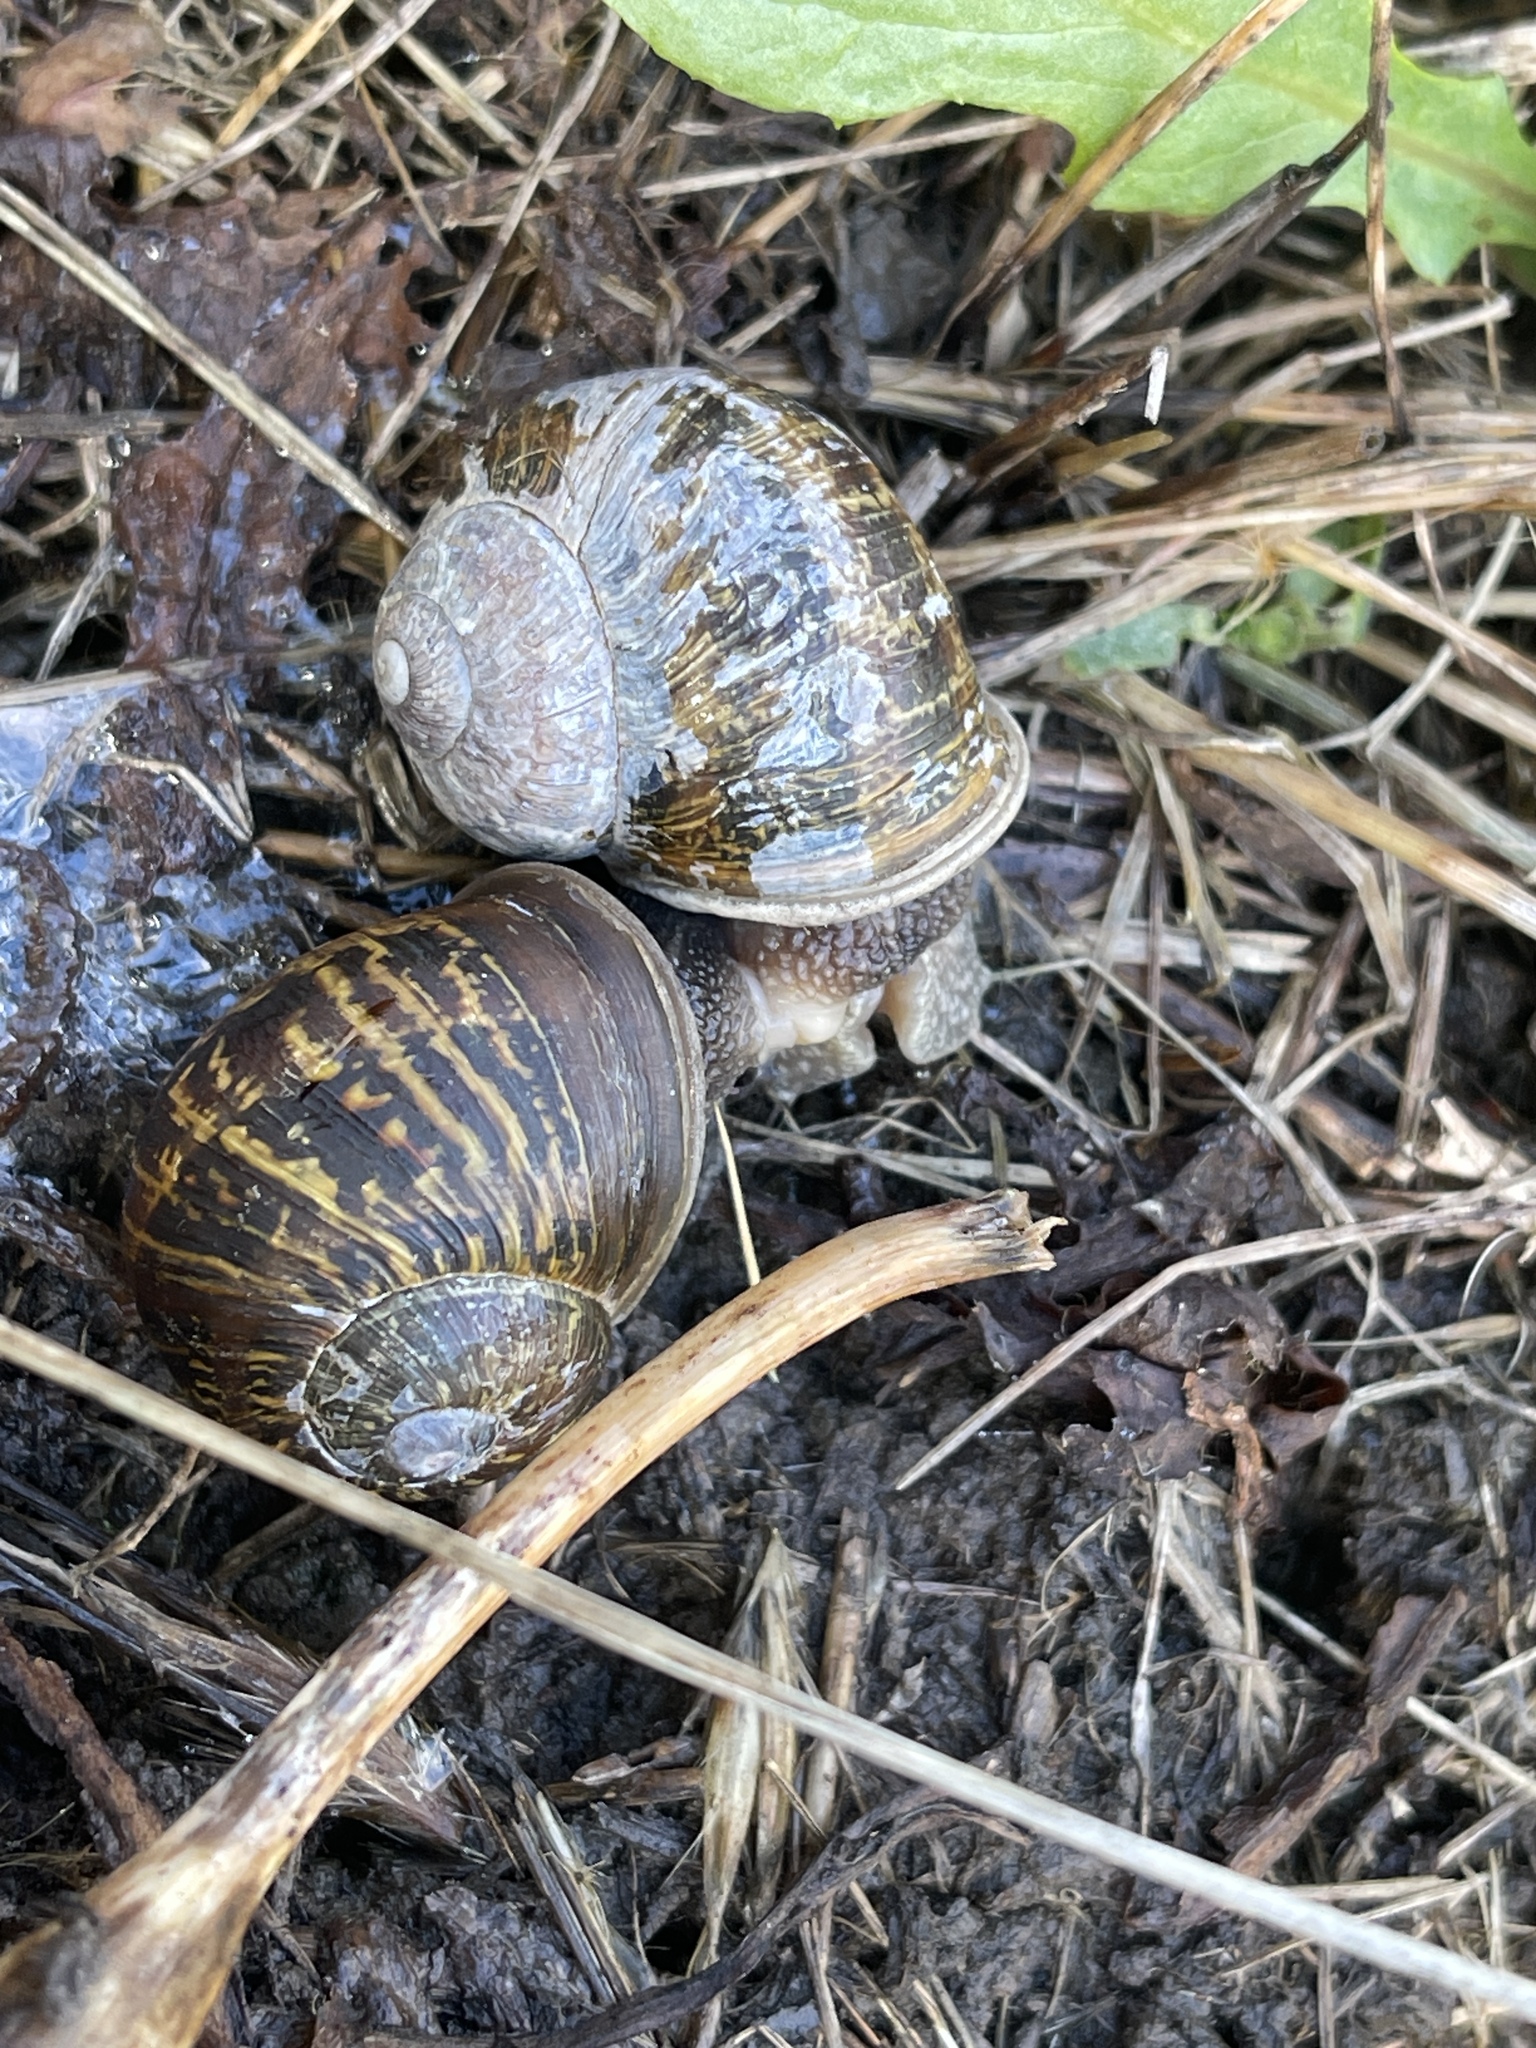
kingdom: Animalia
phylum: Mollusca
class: Gastropoda
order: Stylommatophora
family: Helicidae
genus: Cornu
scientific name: Cornu aspersum
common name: Brown garden snail
